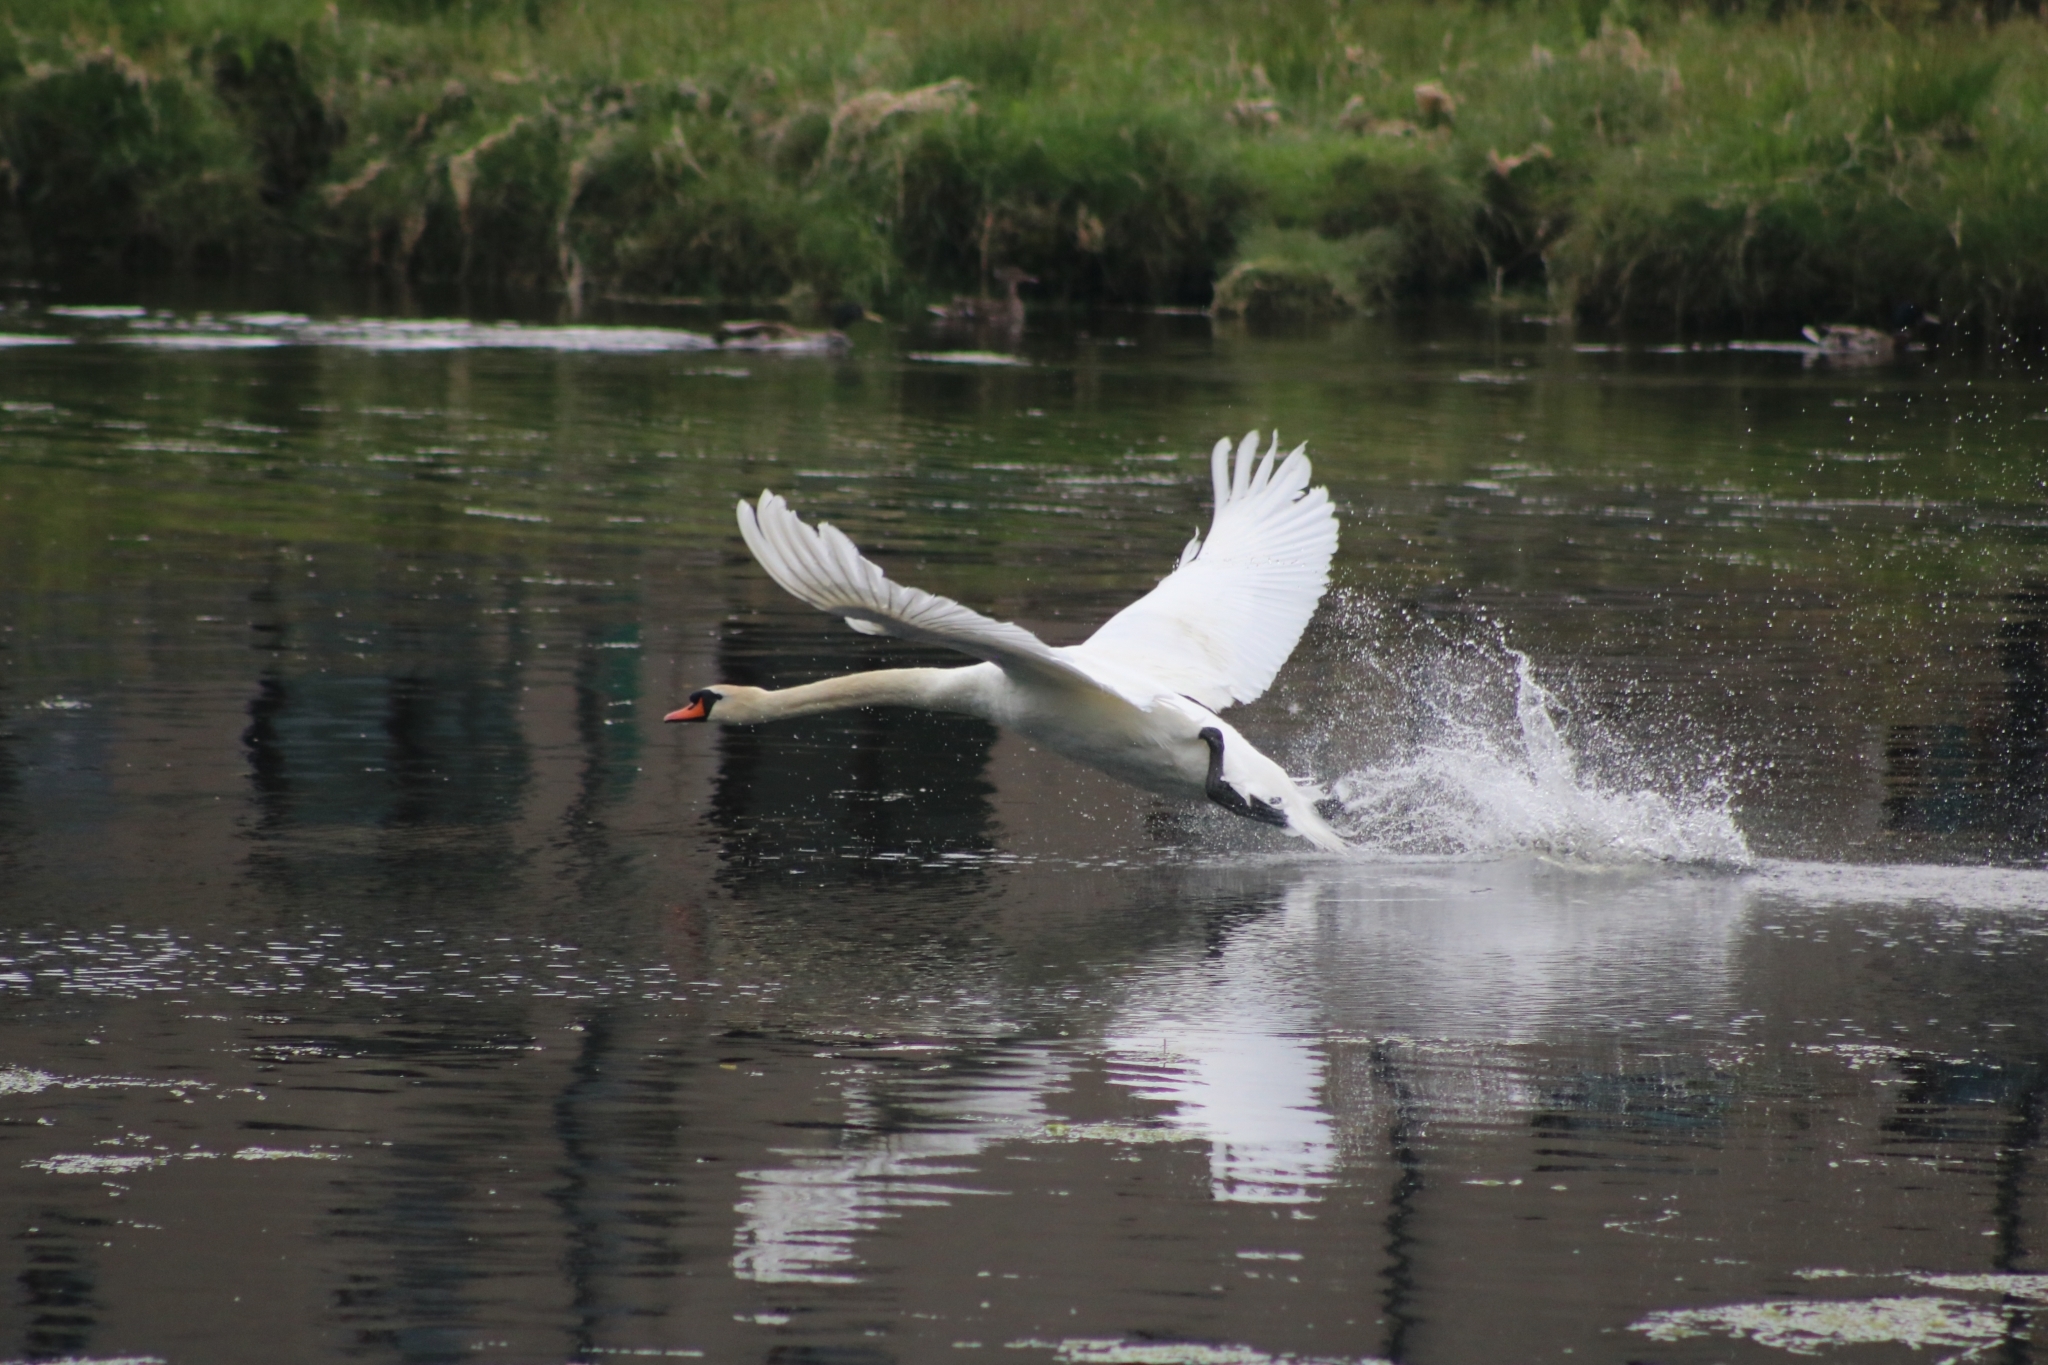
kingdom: Animalia
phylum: Chordata
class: Aves
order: Anseriformes
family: Anatidae
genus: Cygnus
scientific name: Cygnus olor
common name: Mute swan
